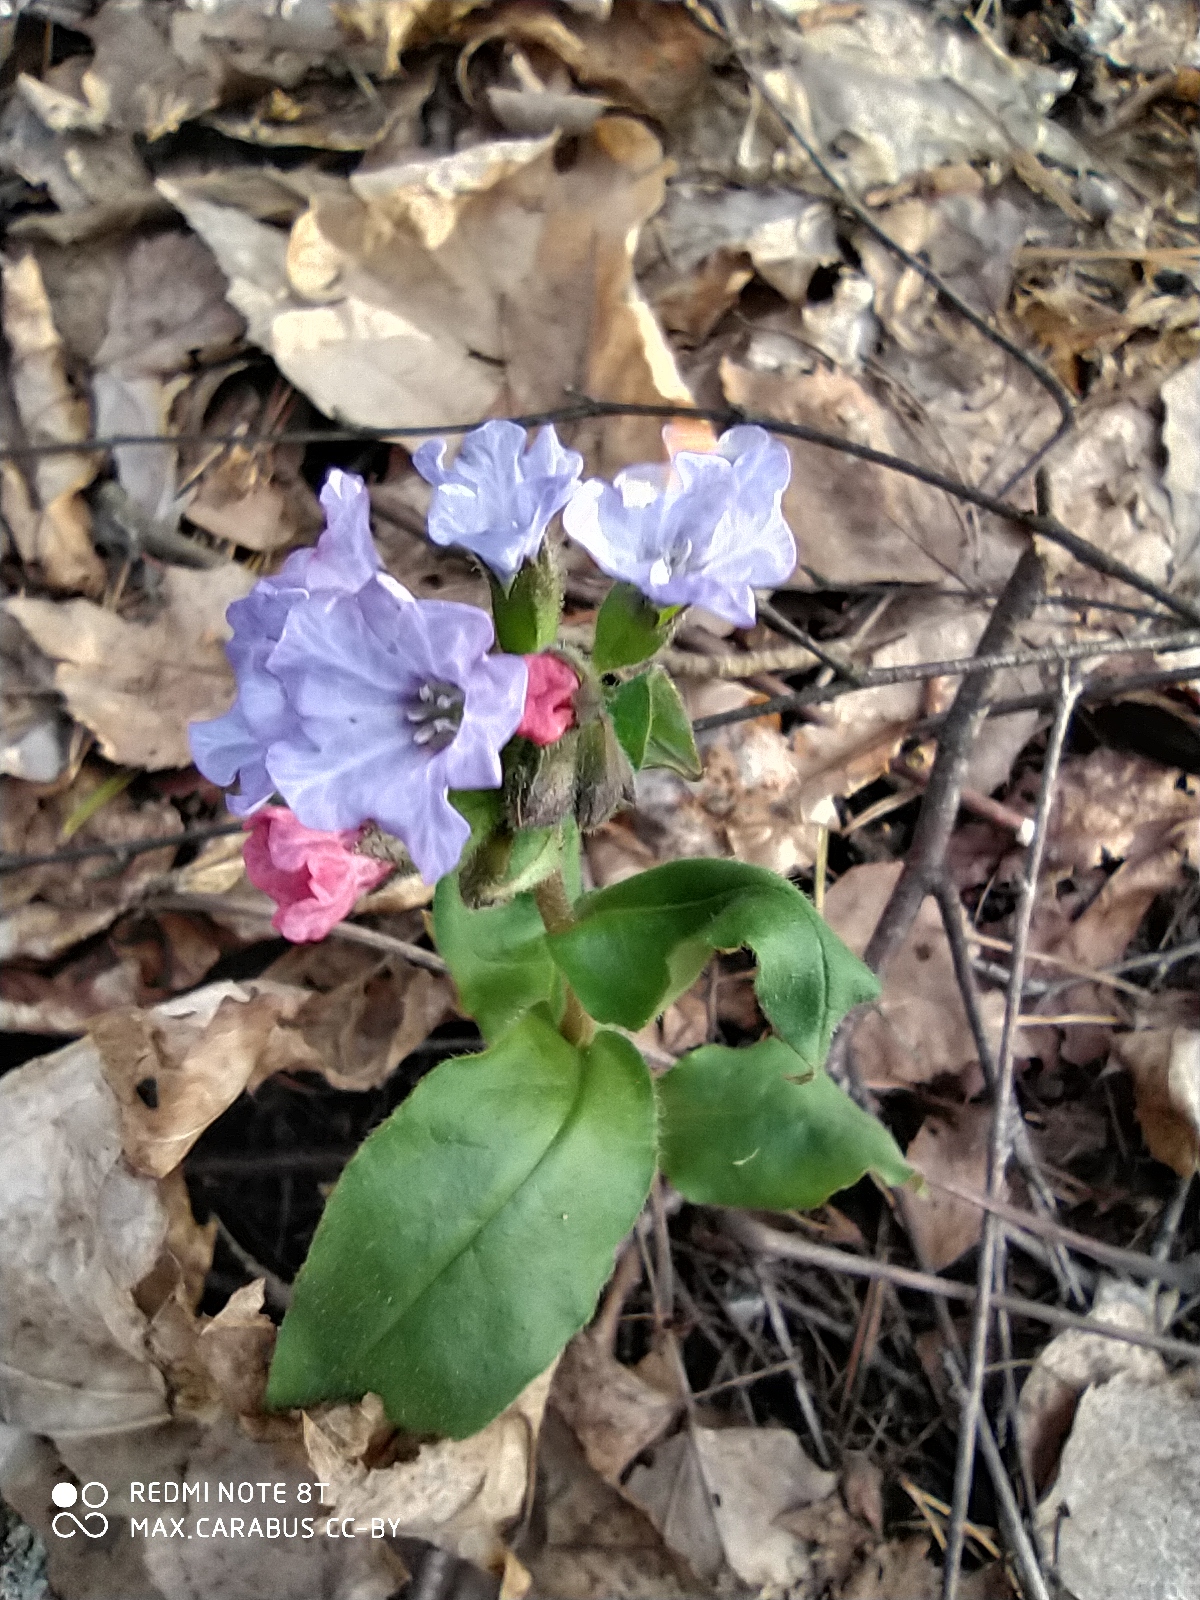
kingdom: Plantae
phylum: Tracheophyta
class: Magnoliopsida
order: Boraginales
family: Boraginaceae
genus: Pulmonaria
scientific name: Pulmonaria obscura
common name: Suffolk lungwort
